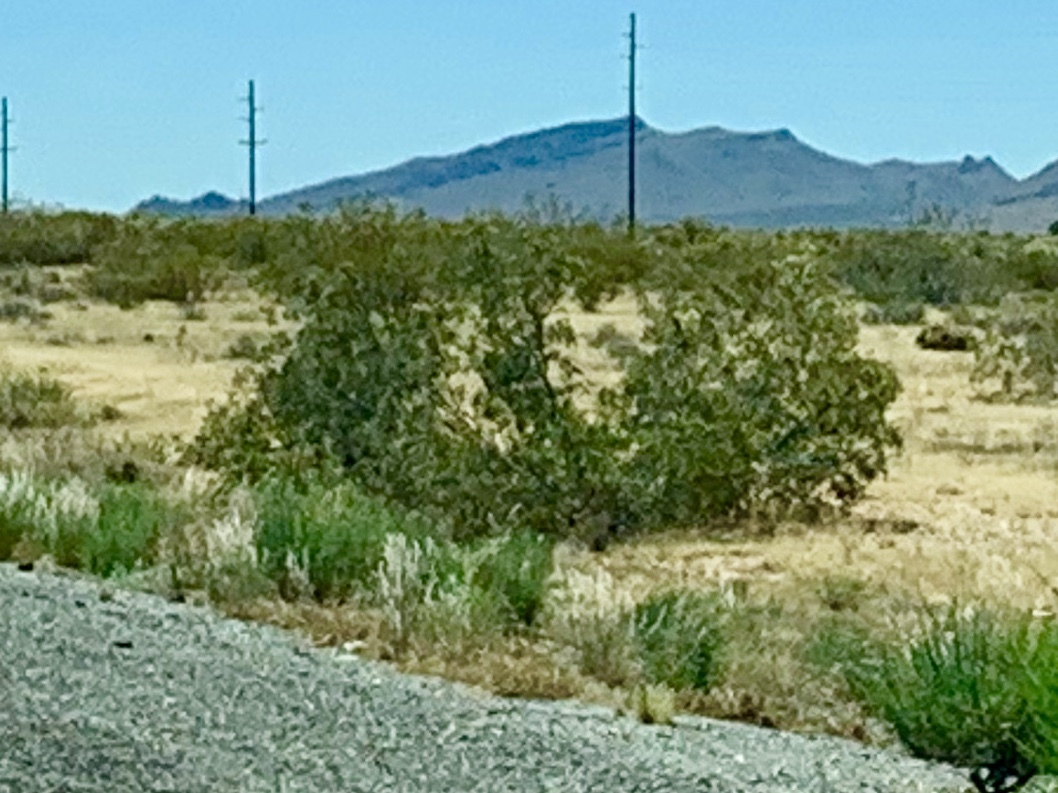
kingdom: Plantae
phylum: Tracheophyta
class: Magnoliopsida
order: Zygophyllales
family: Zygophyllaceae
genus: Larrea
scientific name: Larrea tridentata
